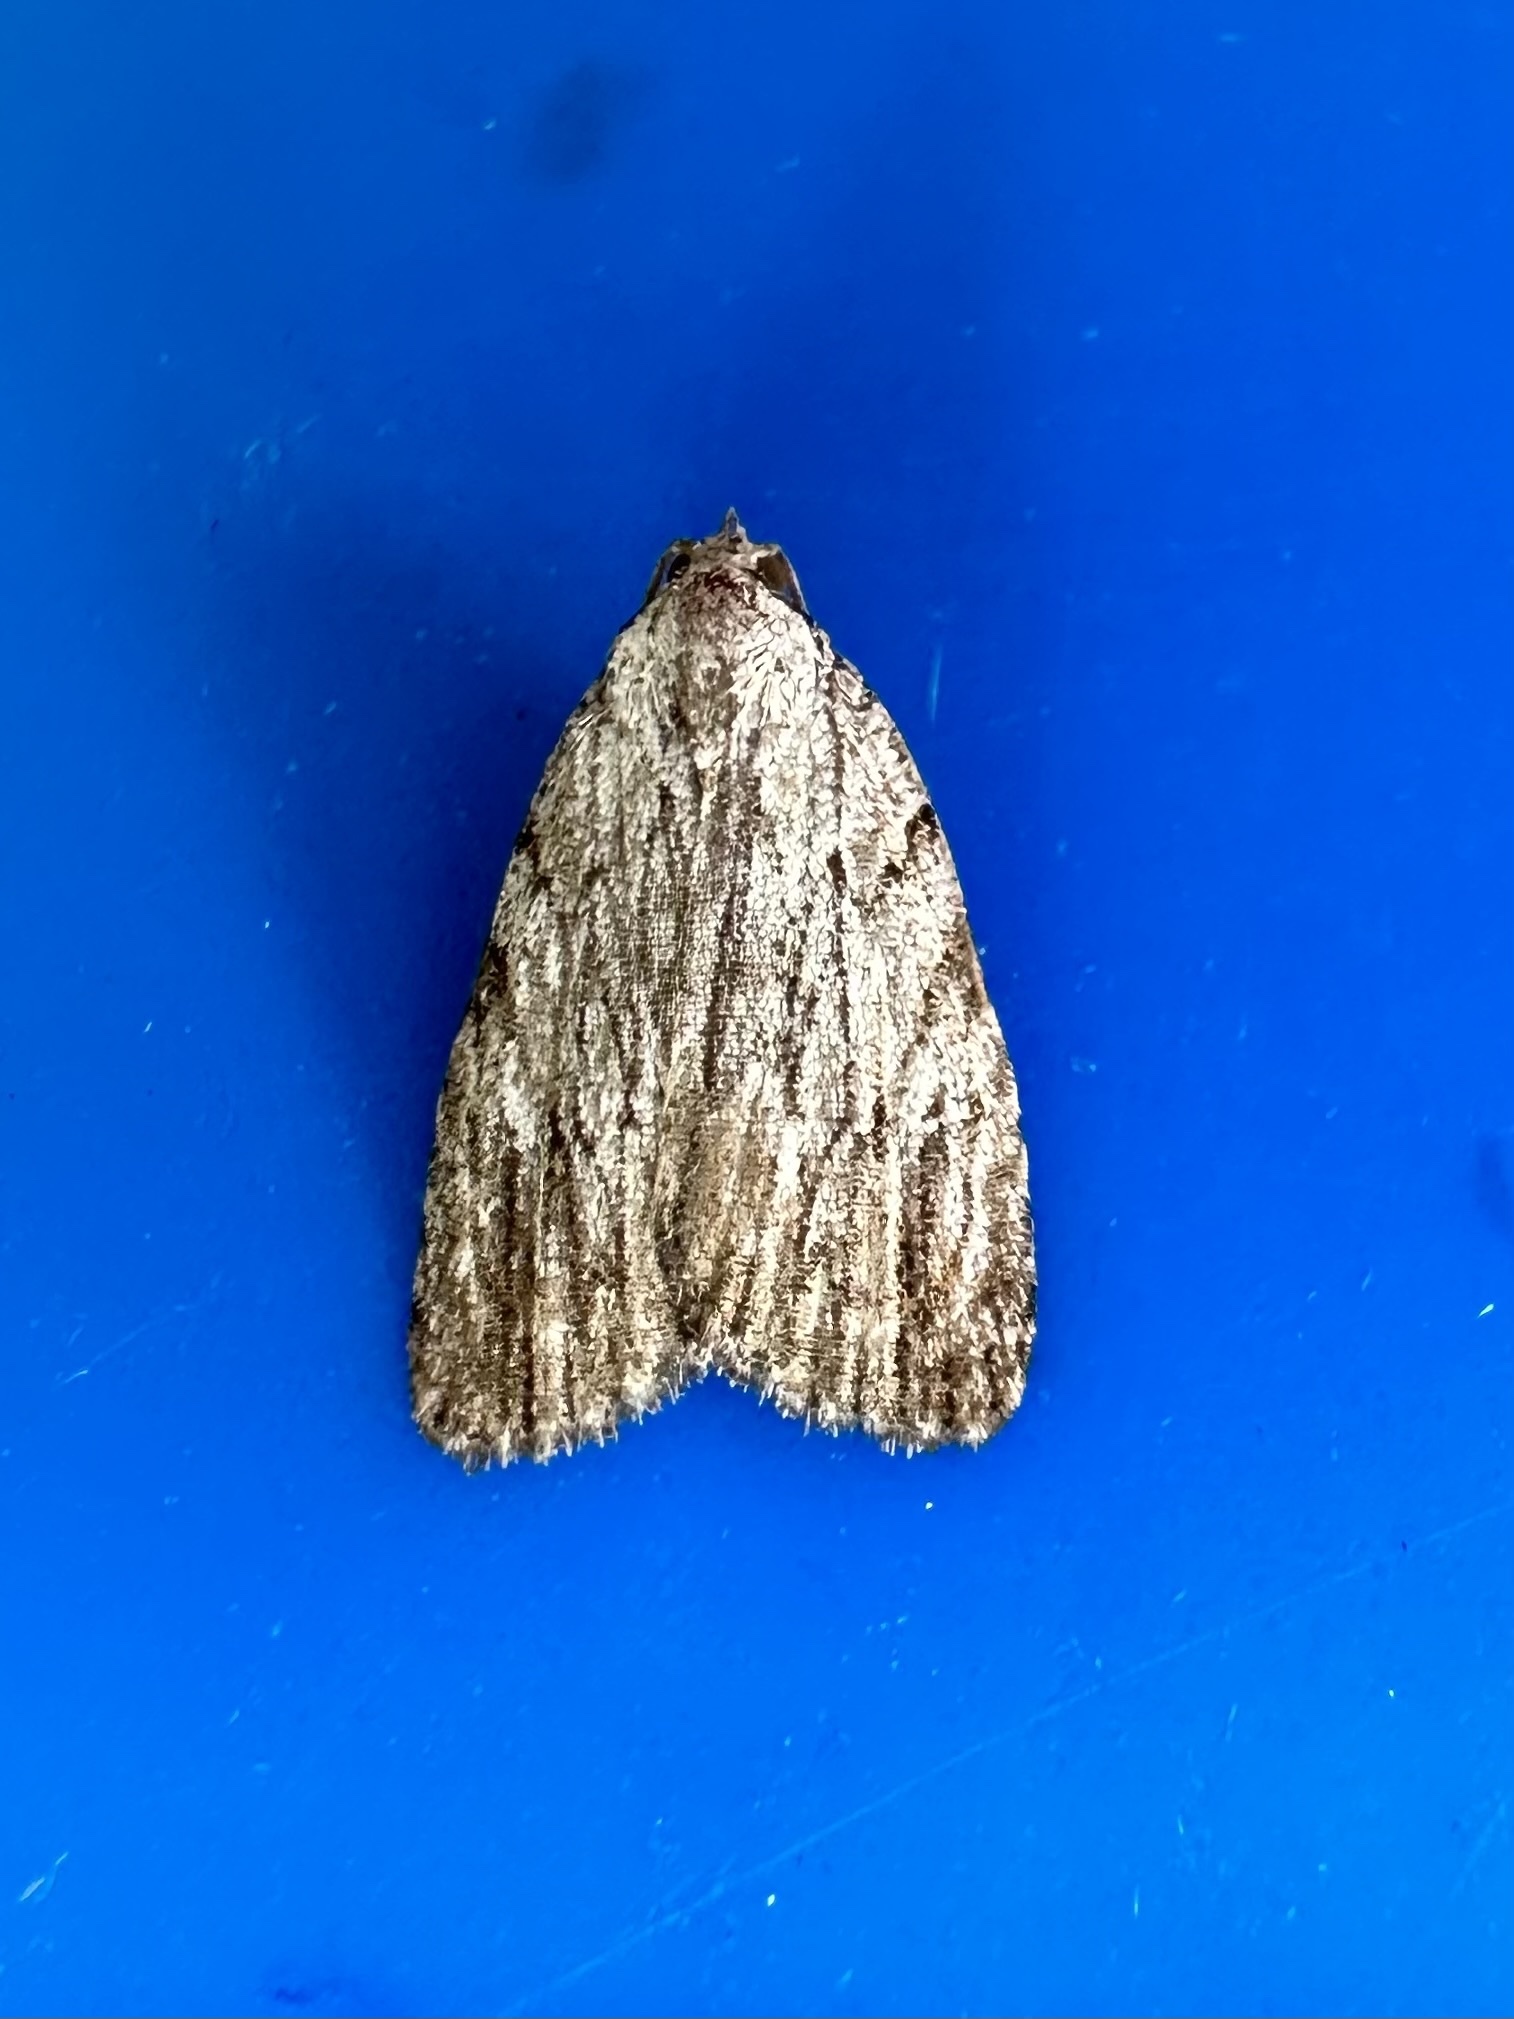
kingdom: Animalia
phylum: Arthropoda
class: Insecta
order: Lepidoptera
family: Noctuidae
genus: Balsa
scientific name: Balsa tristrigella
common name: Three-lined balsa moth
